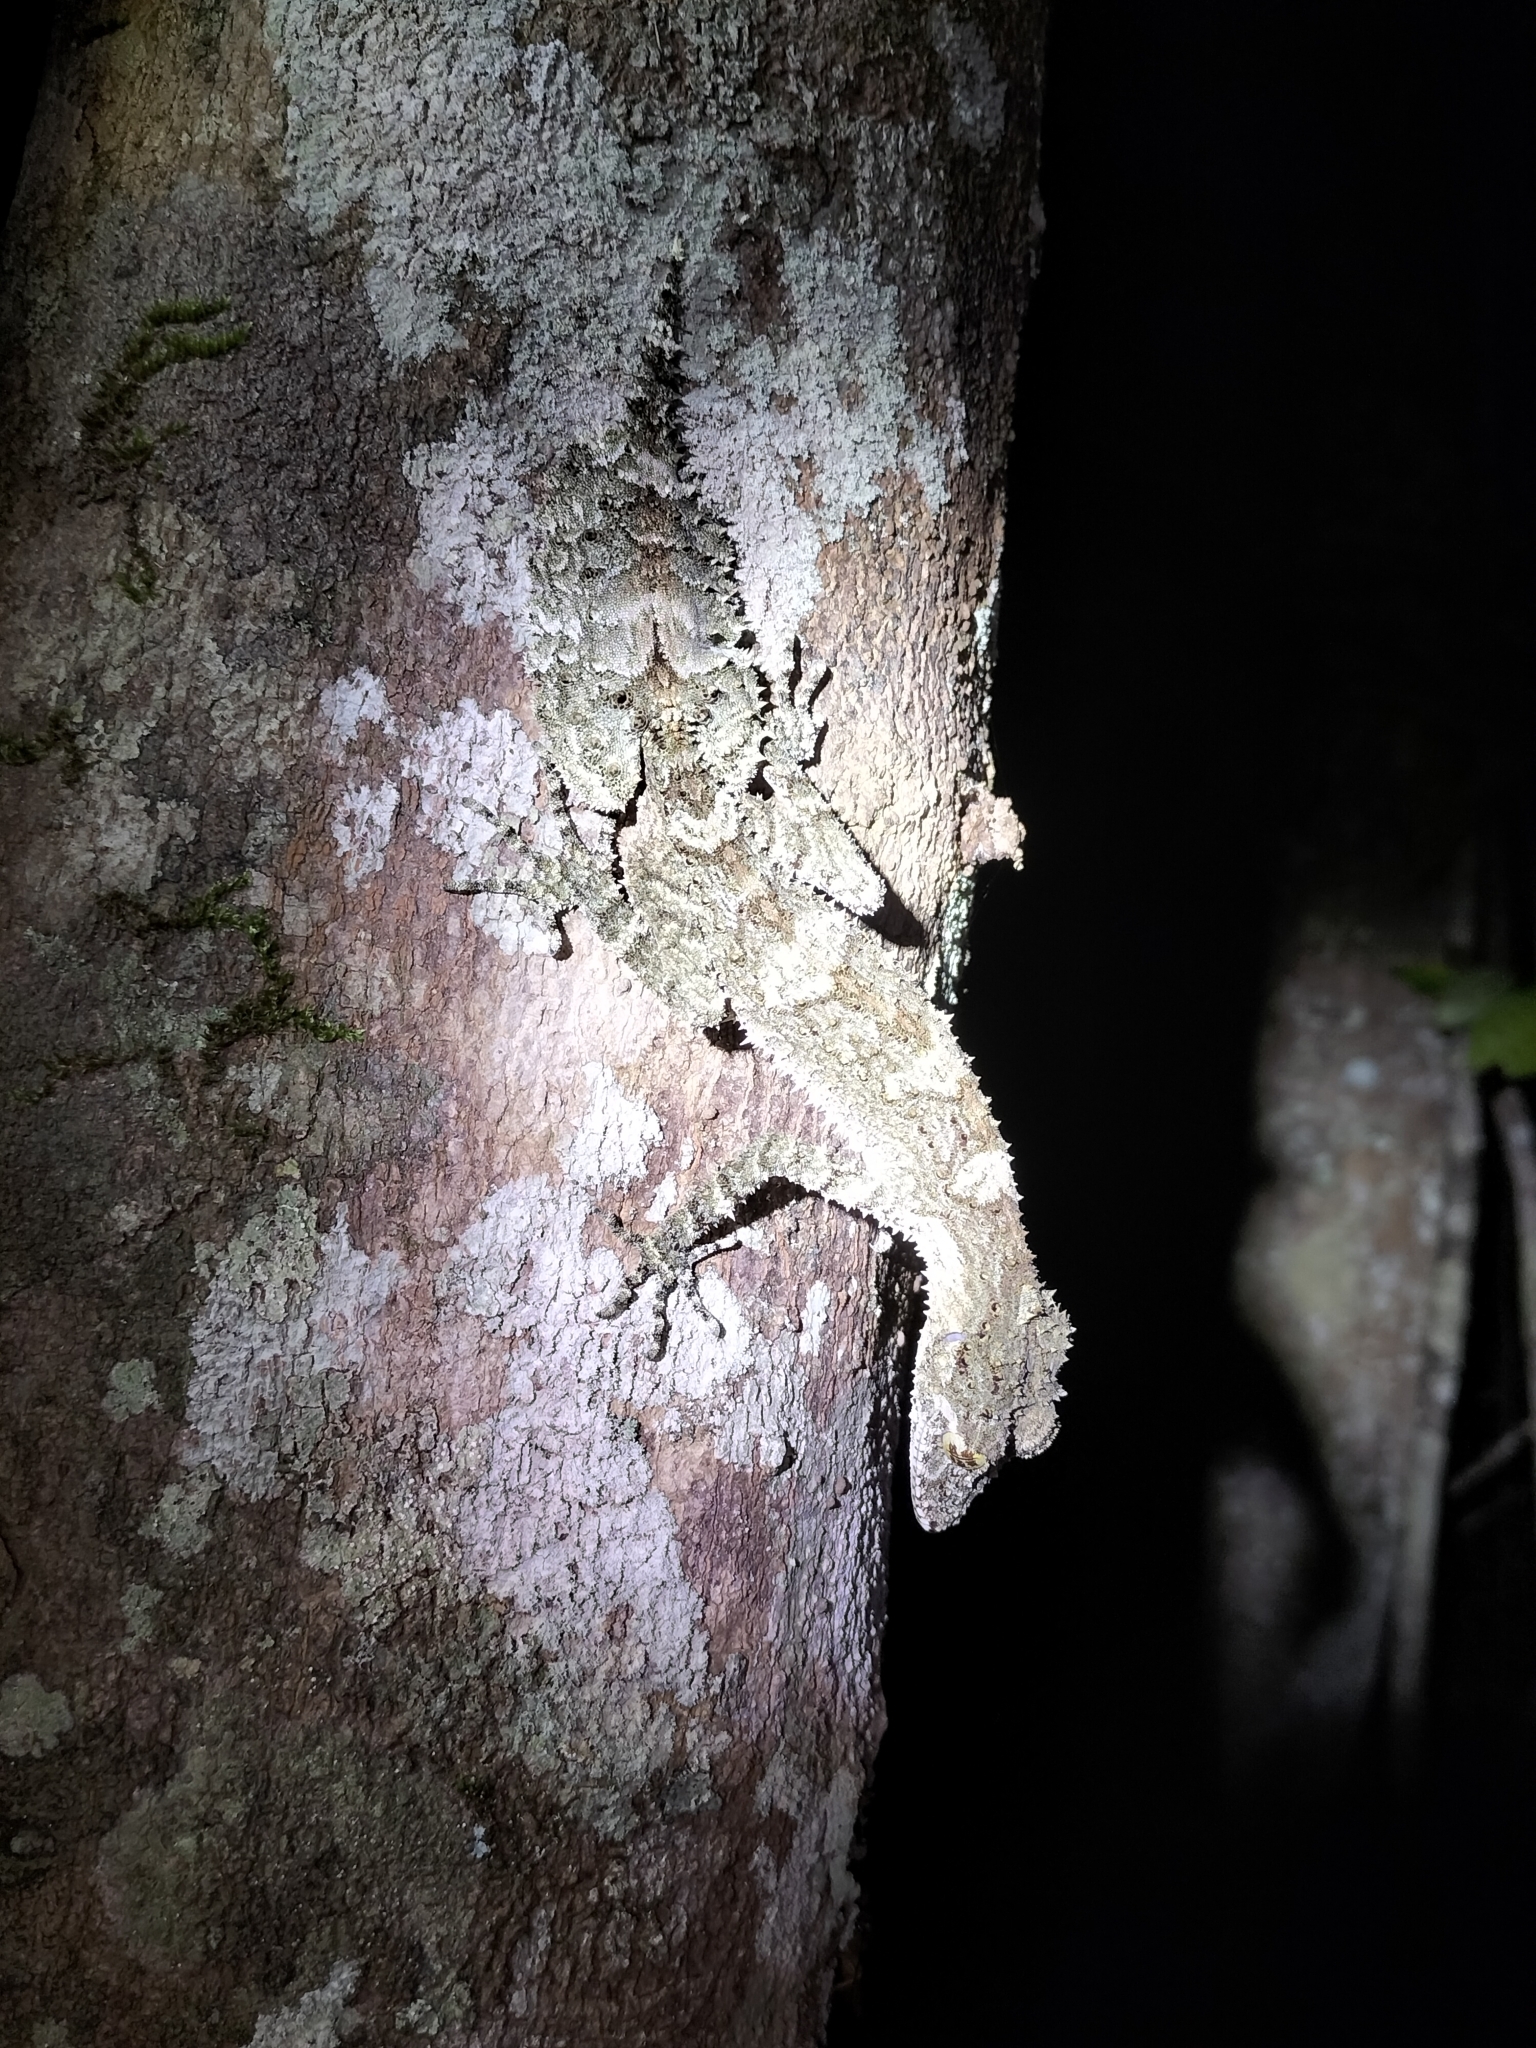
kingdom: Animalia
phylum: Chordata
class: Squamata
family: Carphodactylidae
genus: Saltuarius
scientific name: Saltuarius cornutus
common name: Leaf-tailed gecko
